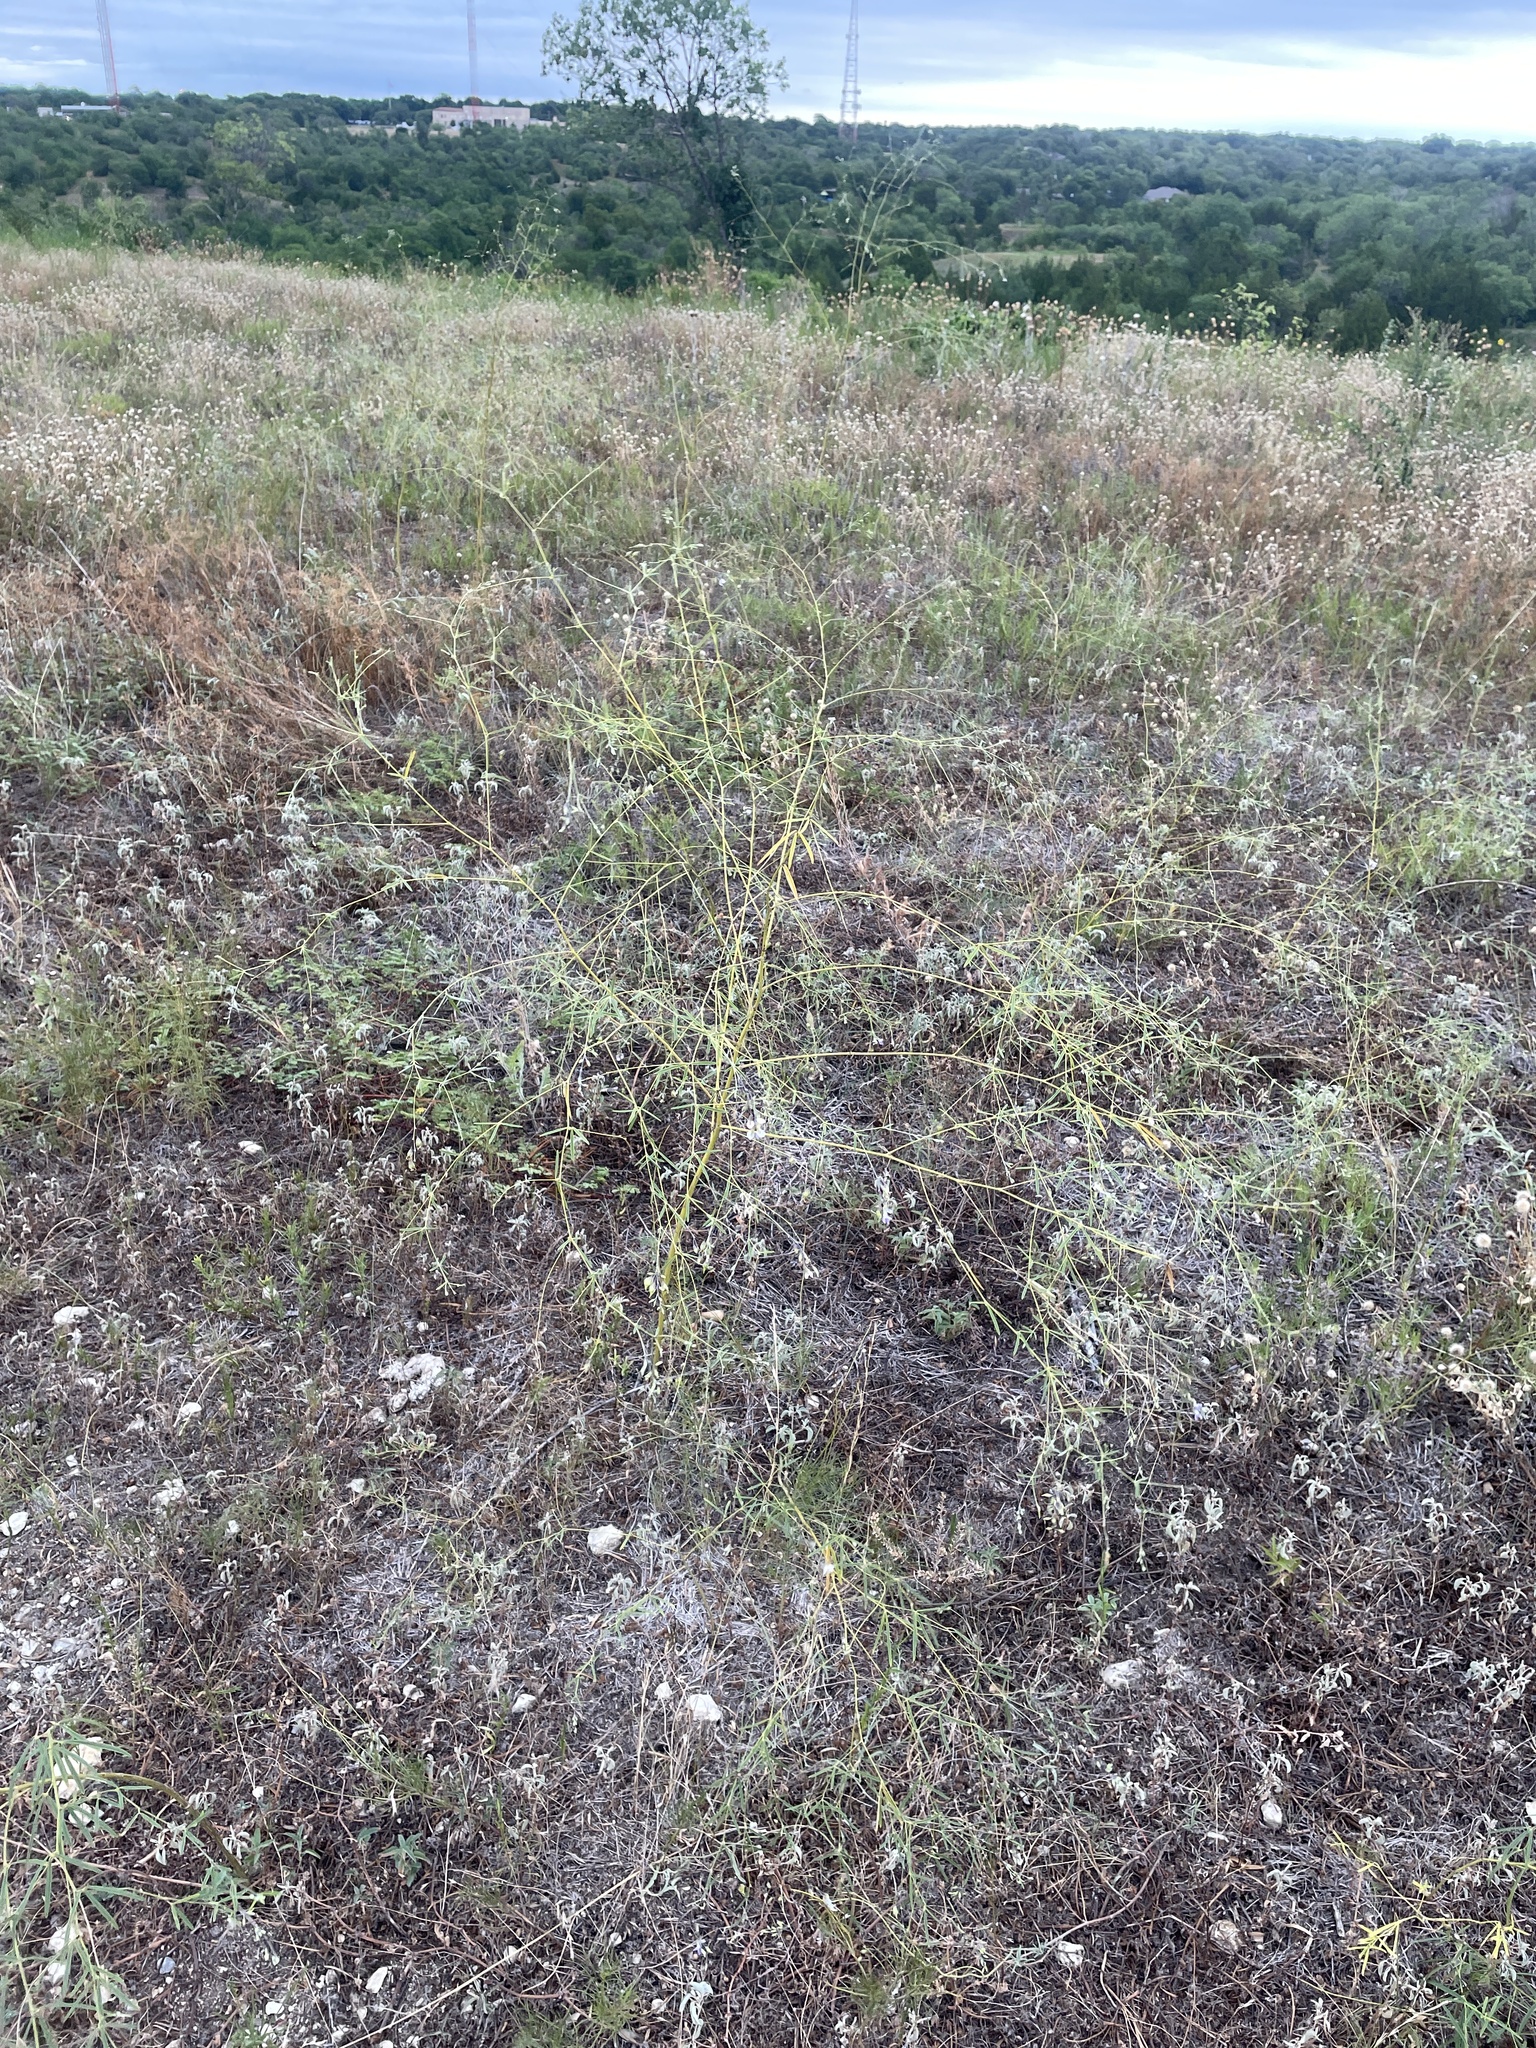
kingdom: Plantae
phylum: Tracheophyta
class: Magnoliopsida
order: Fabales
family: Fabaceae
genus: Pediomelum
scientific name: Pediomelum linearifolium
